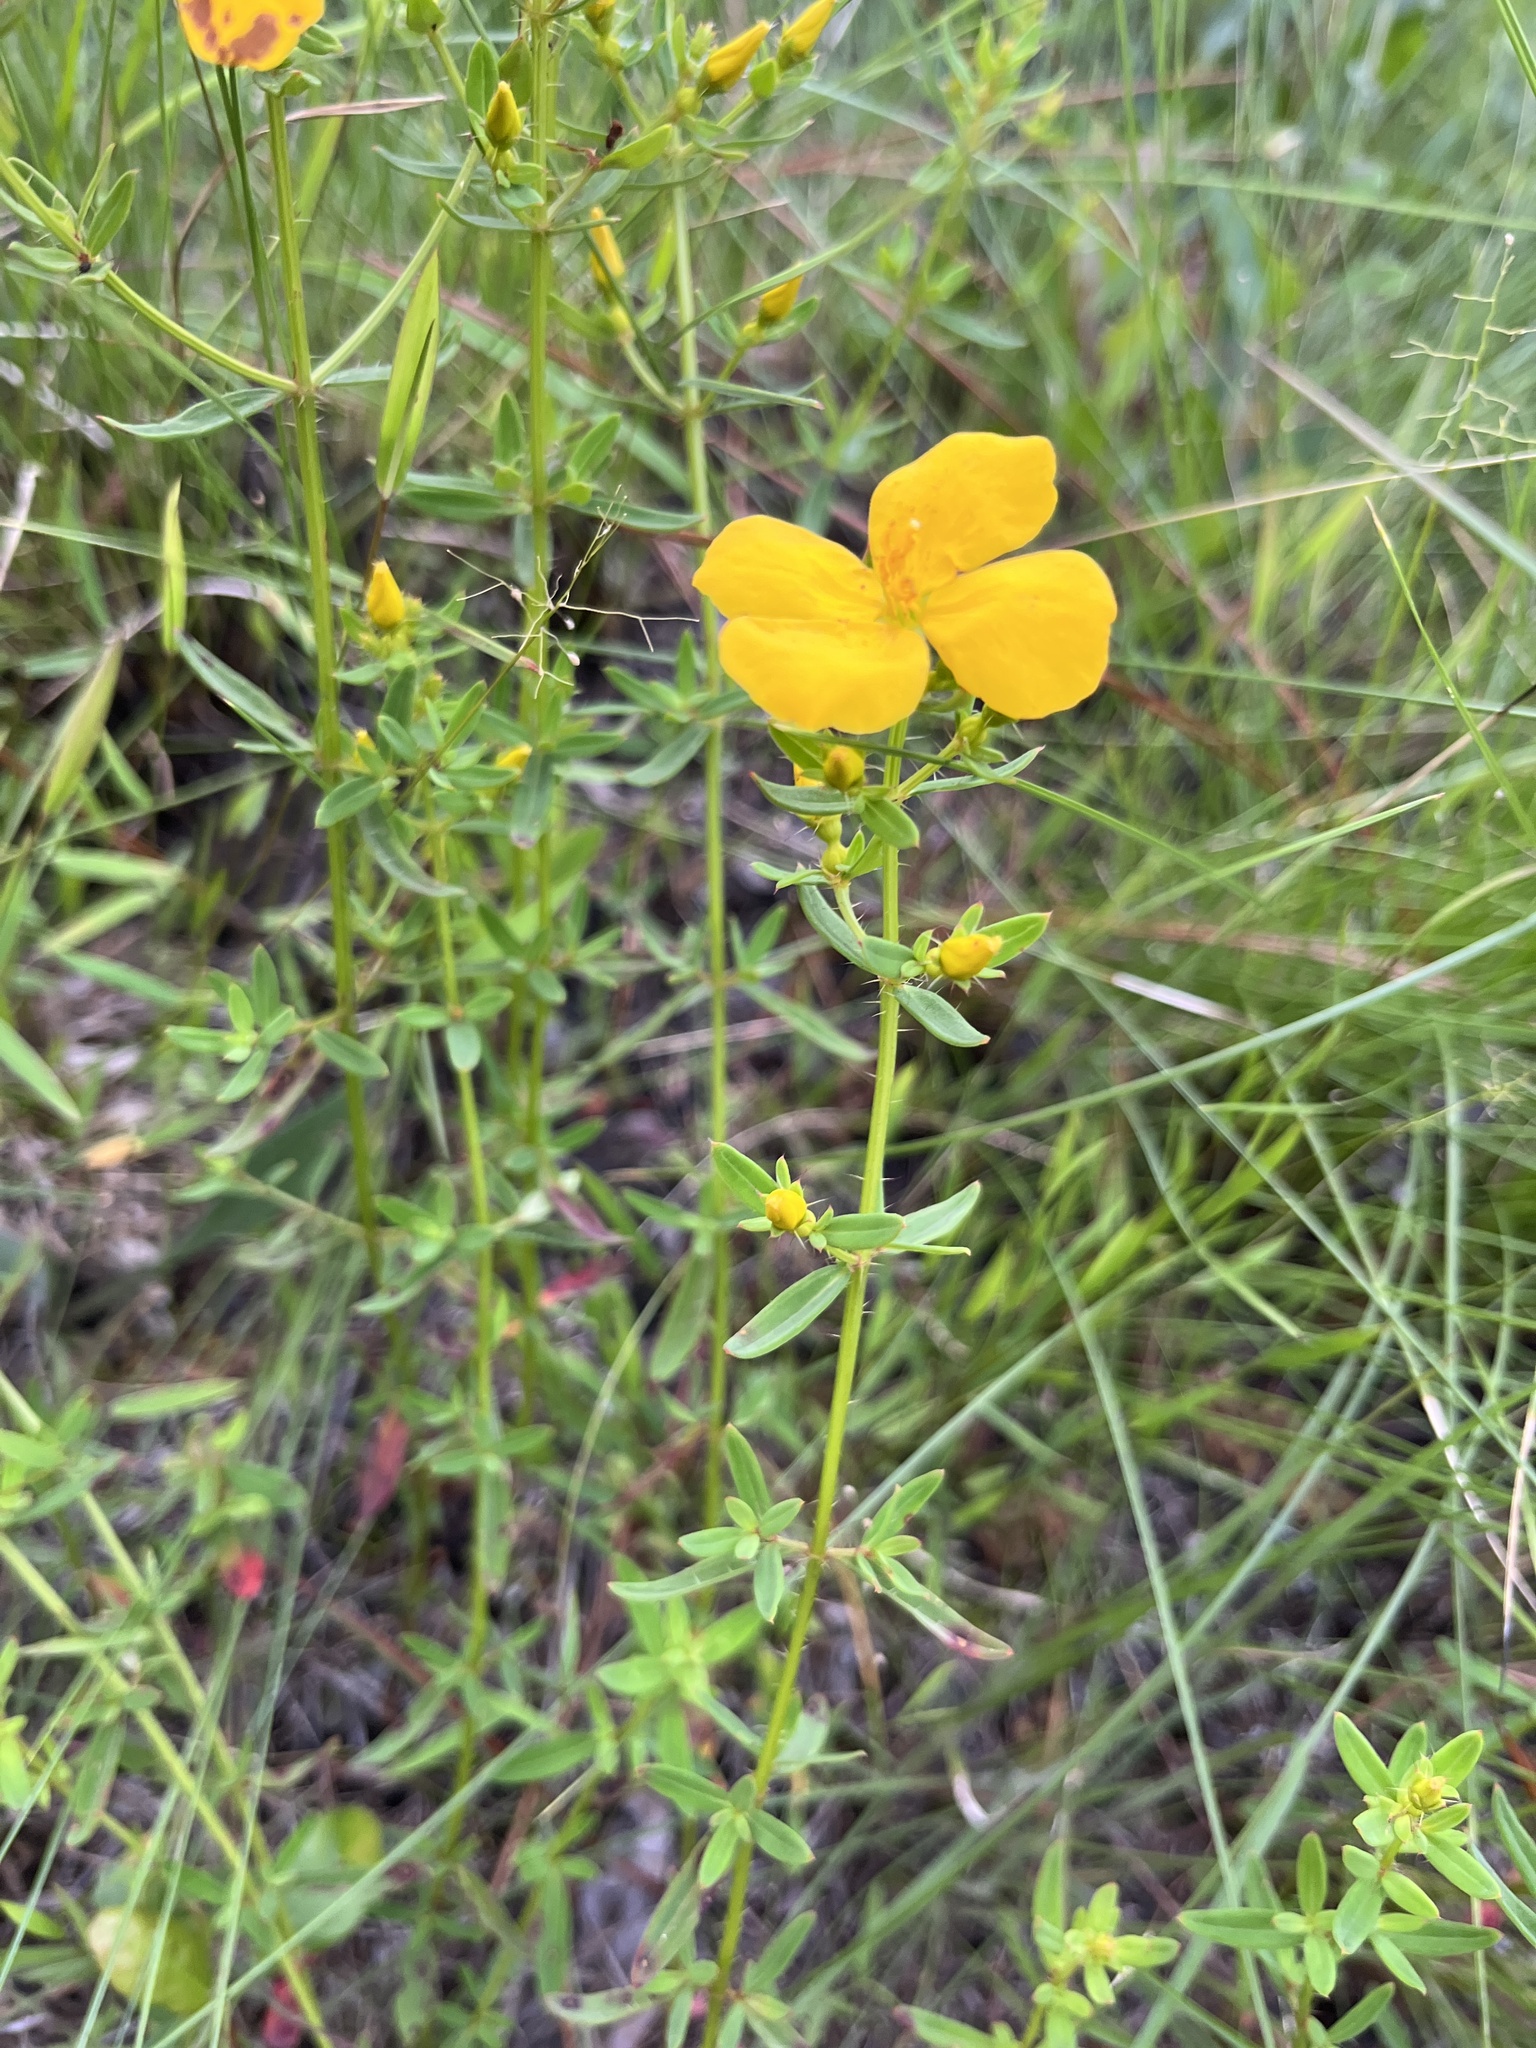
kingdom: Plantae
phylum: Tracheophyta
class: Magnoliopsida
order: Myrtales
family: Melastomataceae
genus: Rhexia
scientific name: Rhexia lutea
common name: Golden meadow-beauty
